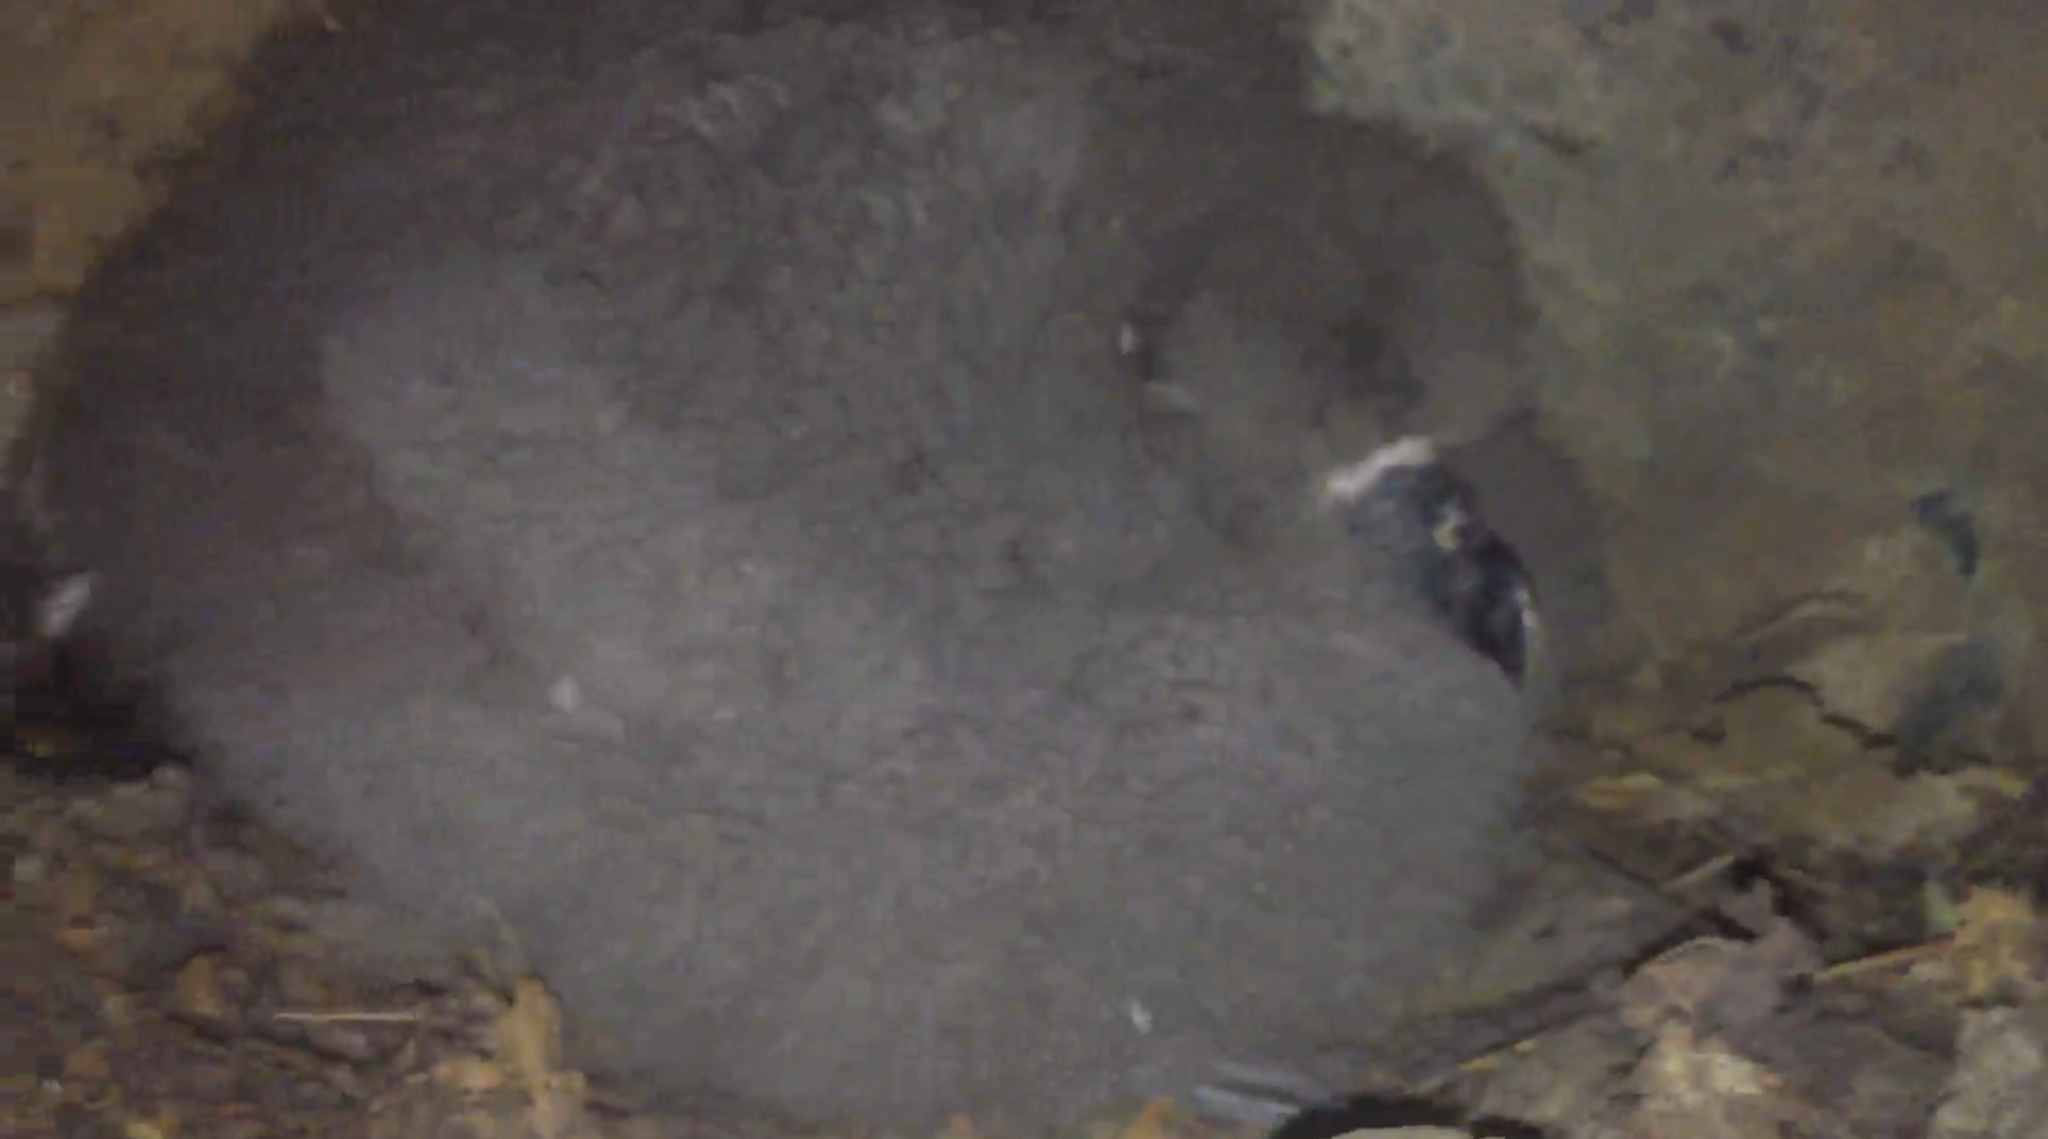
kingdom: Animalia
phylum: Chordata
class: Aves
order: Procellariiformes
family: Procellariidae
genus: Pterodroma
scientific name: Pterodroma macroptera
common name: Great-winged petrel
